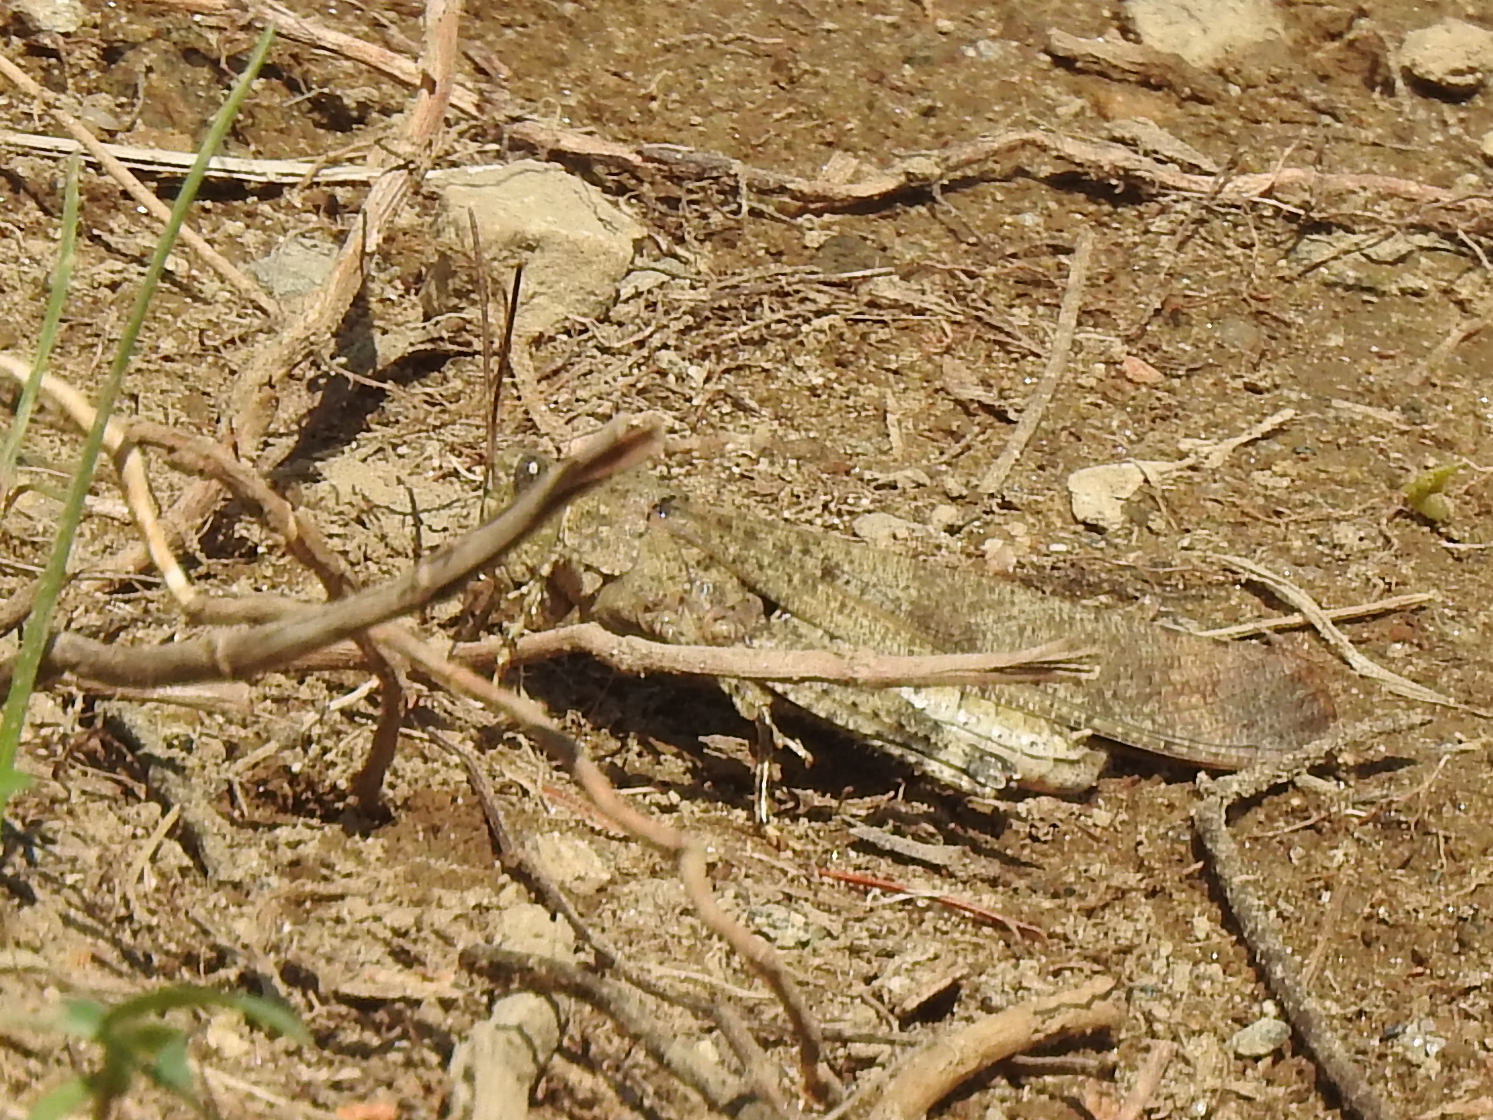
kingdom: Animalia
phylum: Arthropoda
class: Insecta
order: Orthoptera
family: Acrididae
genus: Dissosteira
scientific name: Dissosteira carolina
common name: Carolina grasshopper
